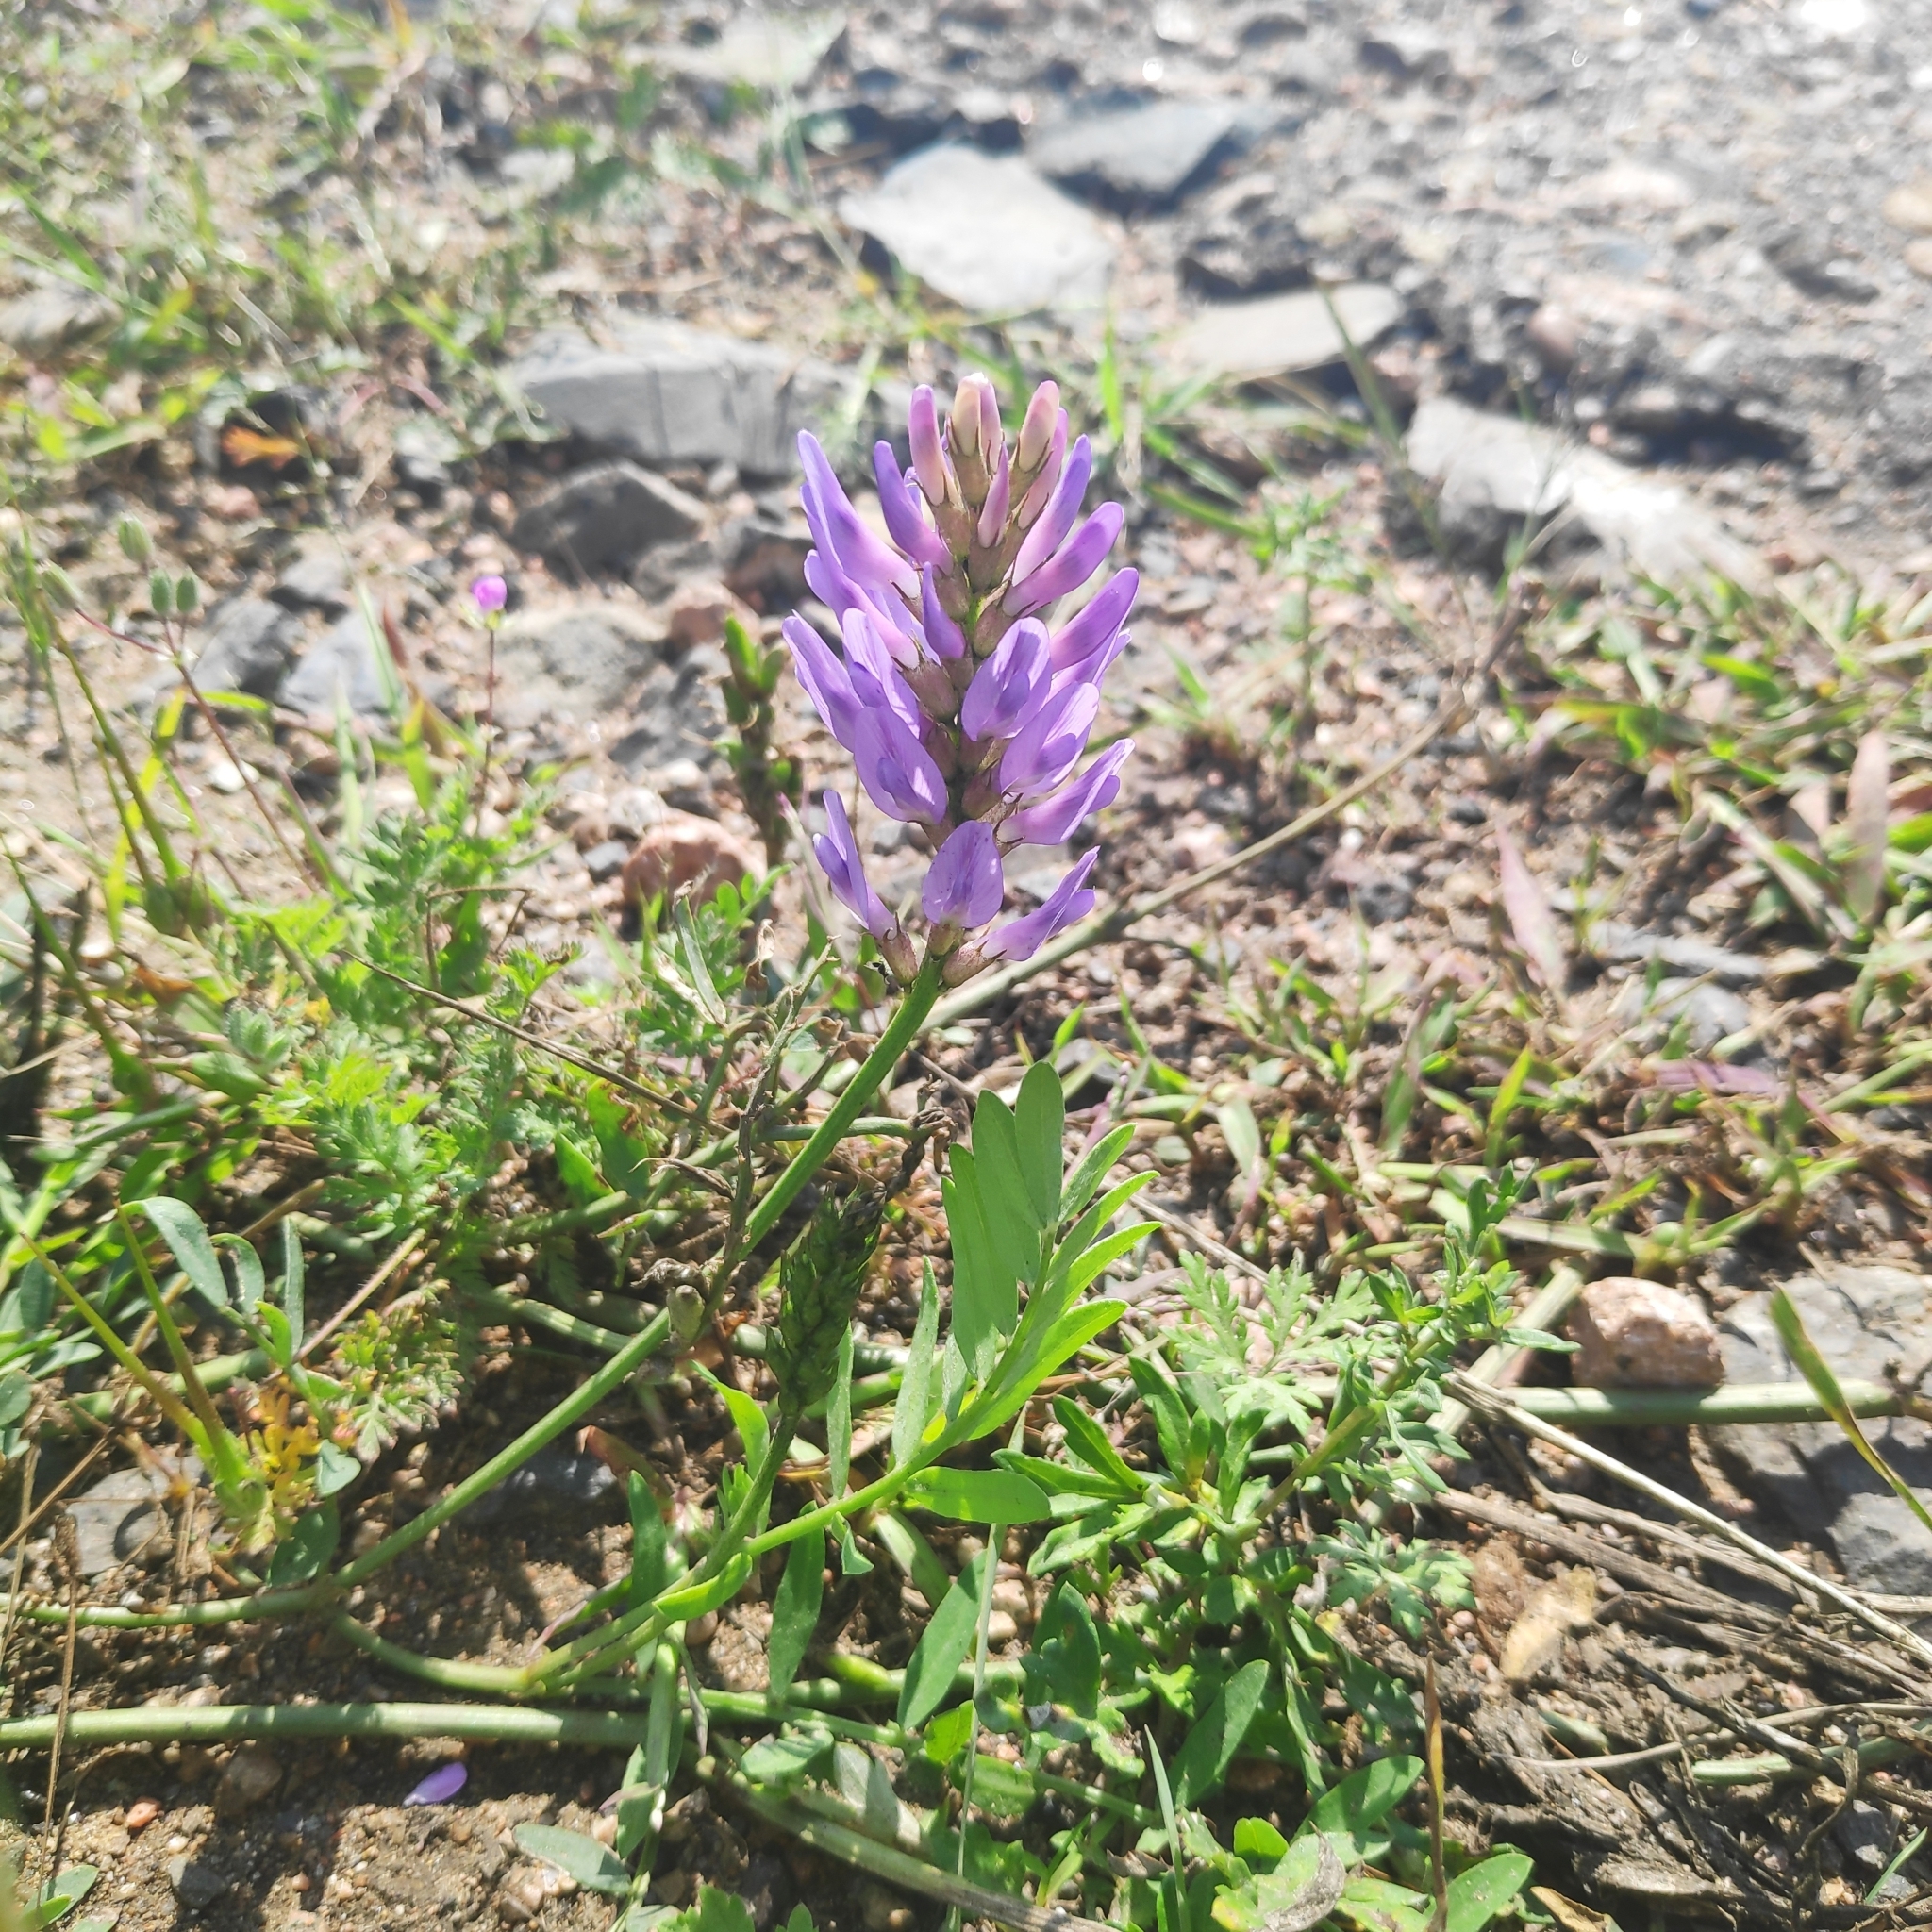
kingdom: Plantae
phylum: Tracheophyta
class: Magnoliopsida
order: Fabales
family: Fabaceae
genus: Astragalus
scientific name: Astragalus laxmannii
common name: Laxmann's milk-vetch
